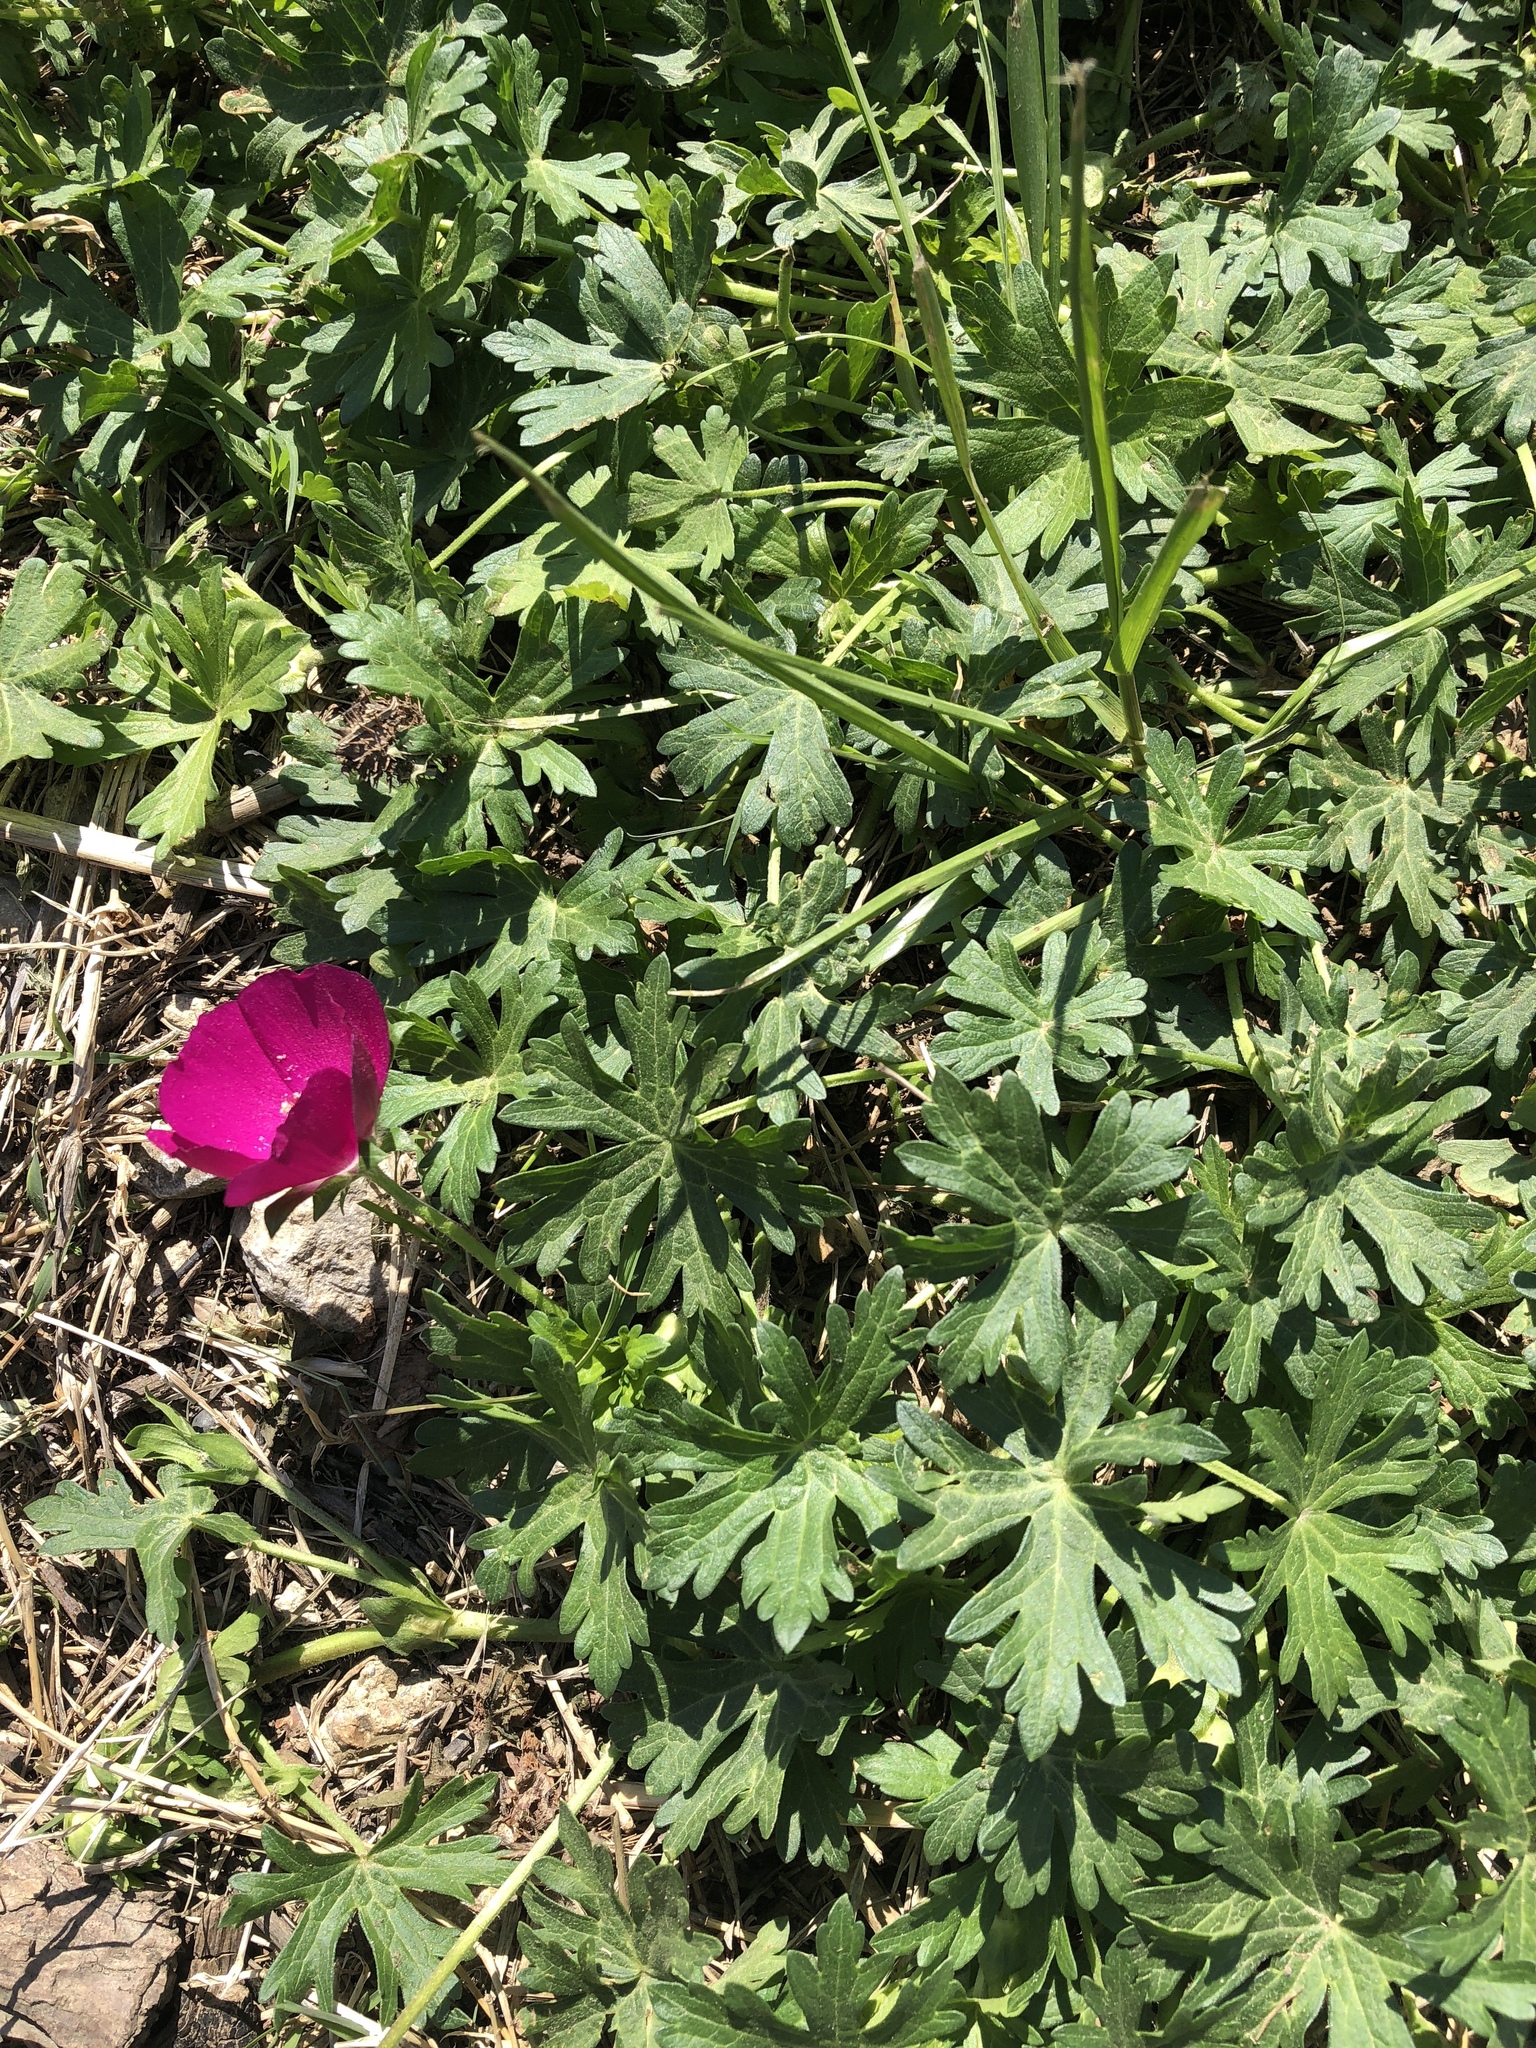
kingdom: Plantae
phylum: Tracheophyta
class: Magnoliopsida
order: Malvales
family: Malvaceae
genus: Callirhoe
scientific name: Callirhoe involucrata
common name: Purple poppy-mallow
